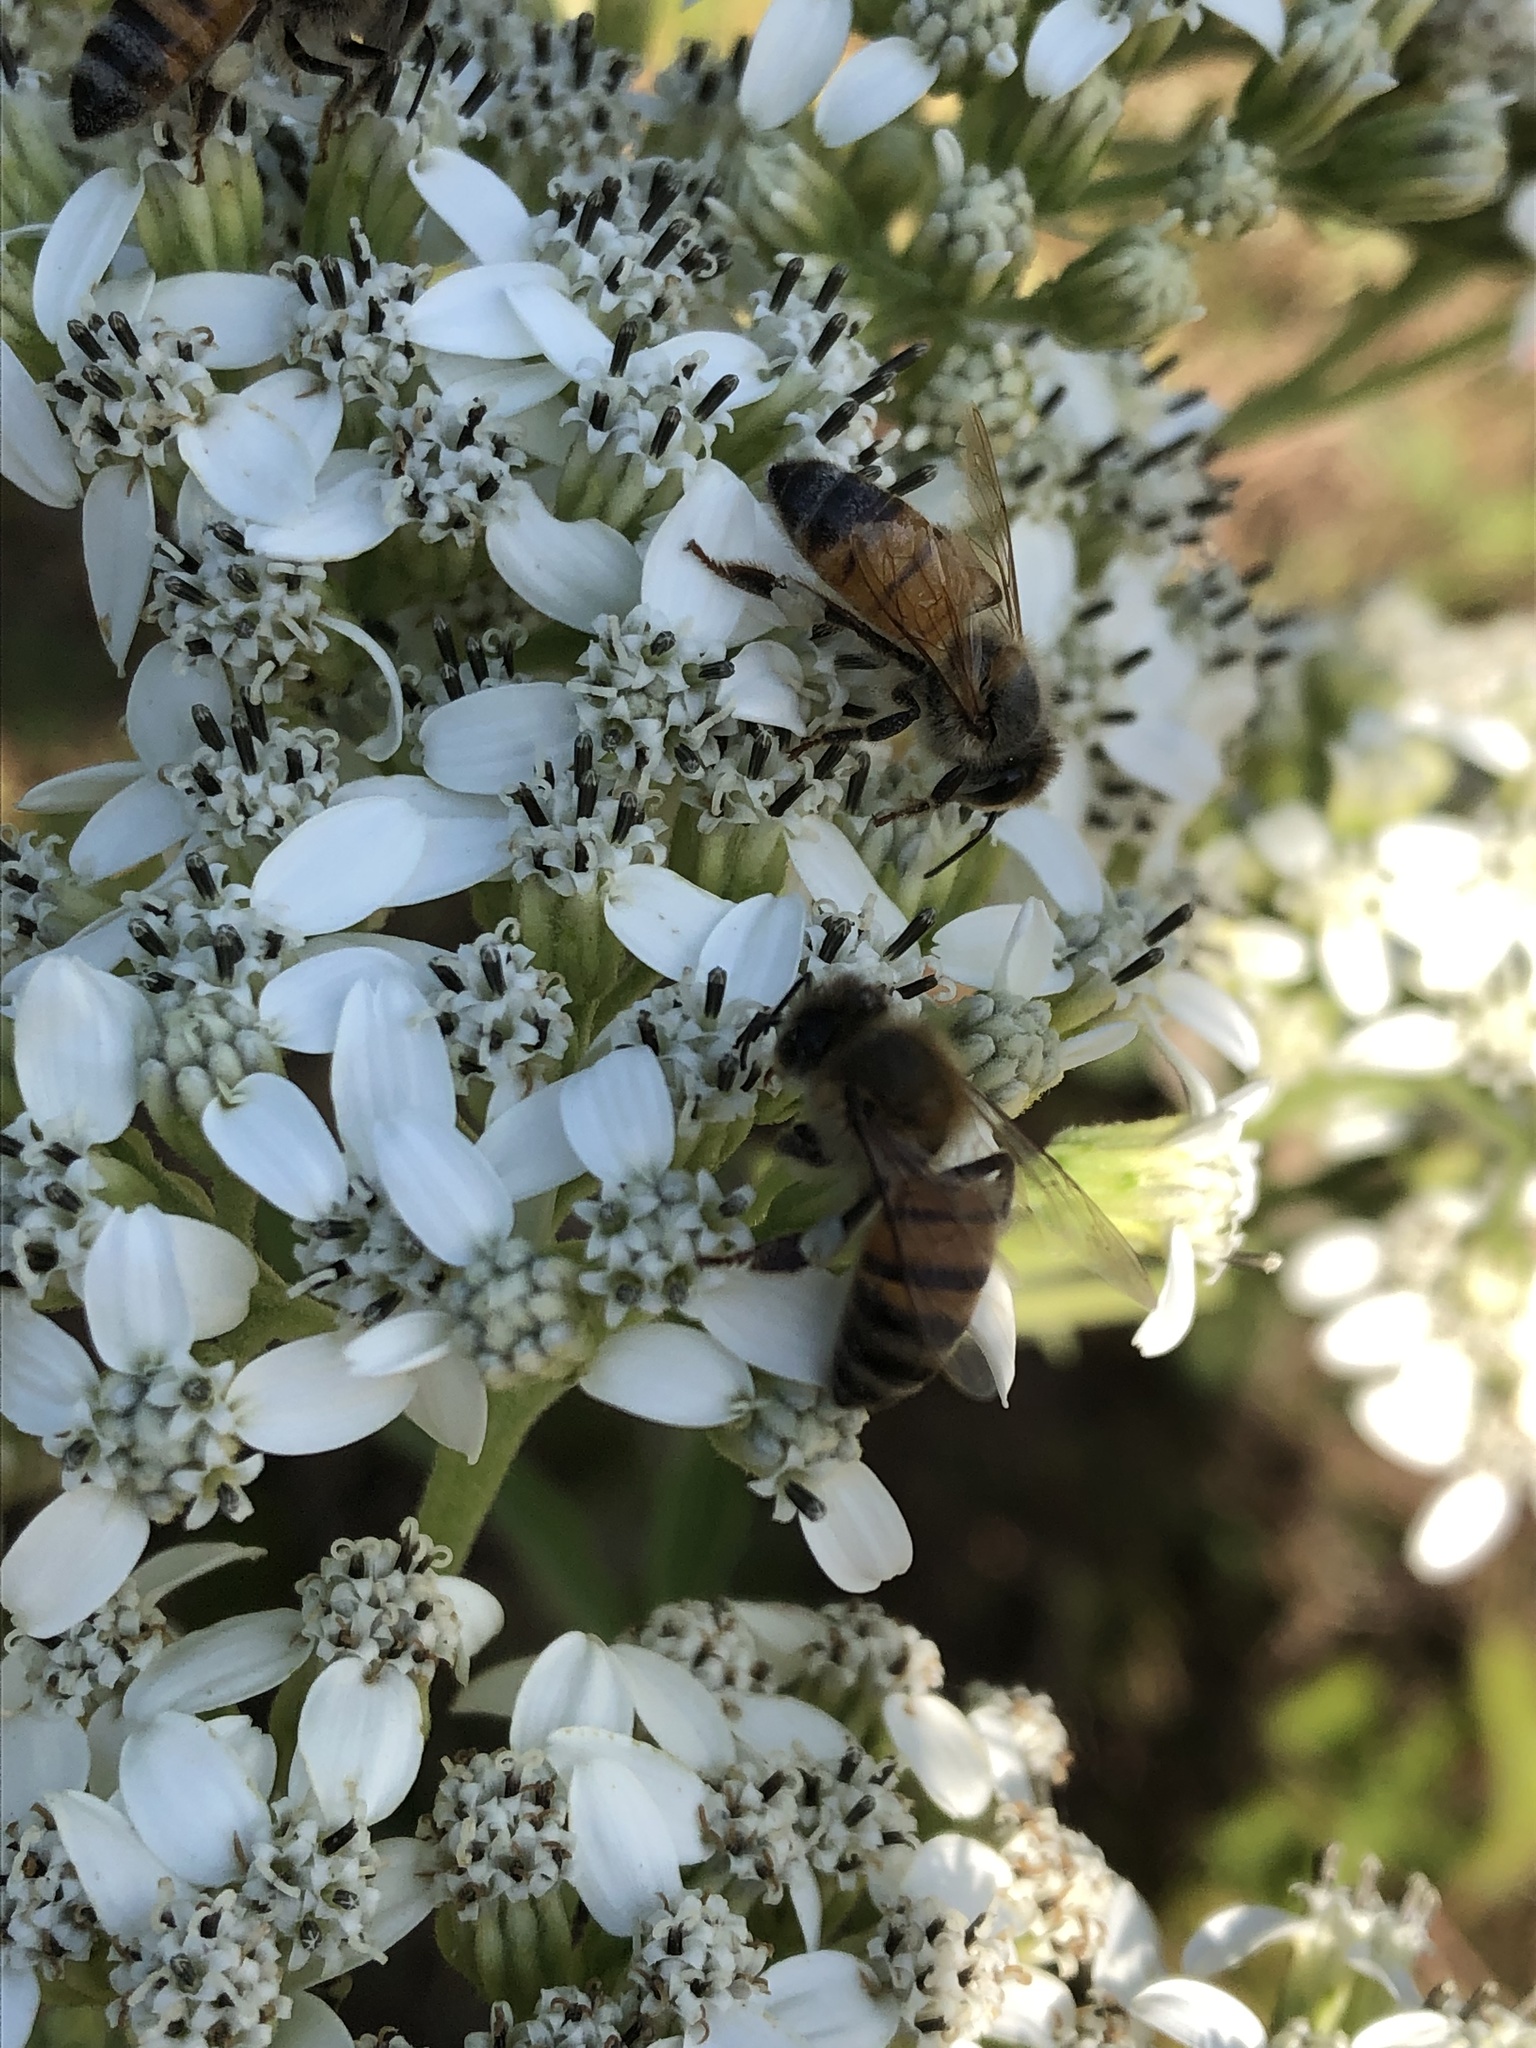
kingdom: Plantae
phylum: Tracheophyta
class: Magnoliopsida
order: Asterales
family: Asteraceae
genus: Verbesina
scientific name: Verbesina virginica
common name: Frostweed
